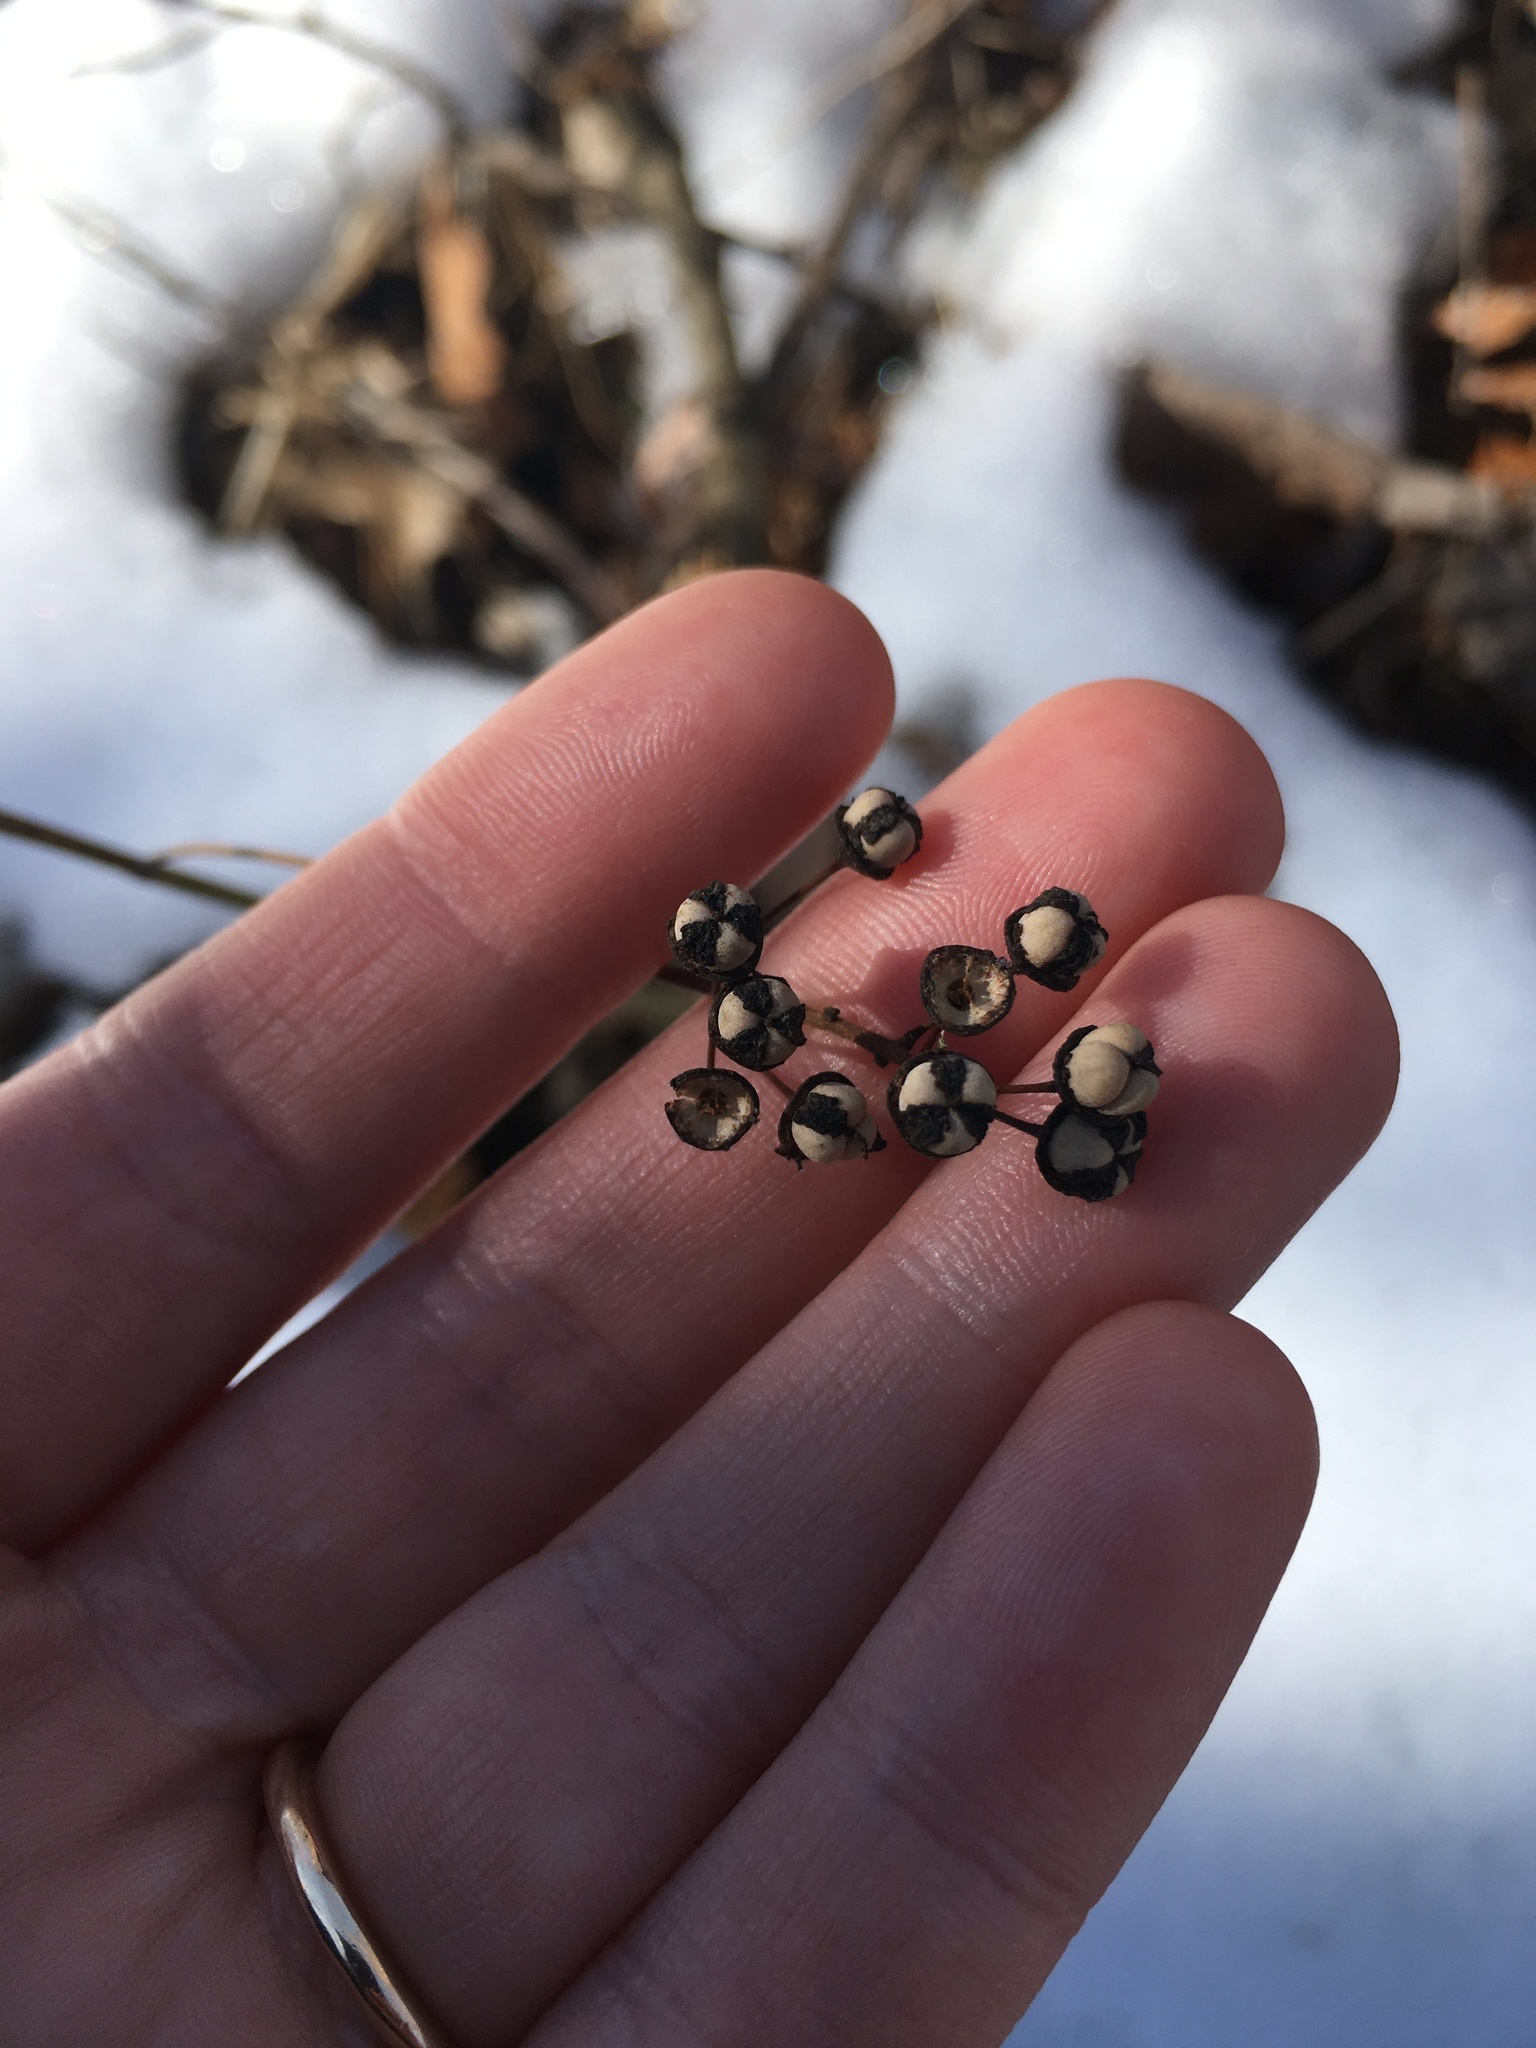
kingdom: Plantae
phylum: Tracheophyta
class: Magnoliopsida
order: Rosales
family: Rhamnaceae
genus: Ceanothus
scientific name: Ceanothus americanus
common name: Redroot
